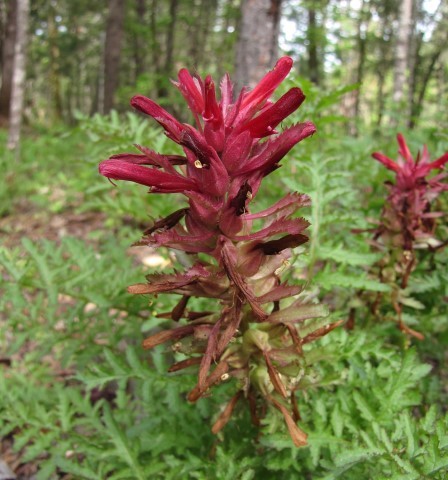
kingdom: Plantae
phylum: Tracheophyta
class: Magnoliopsida
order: Lamiales
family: Orobanchaceae
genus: Pedicularis
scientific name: Pedicularis densiflora
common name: Indian warrior
